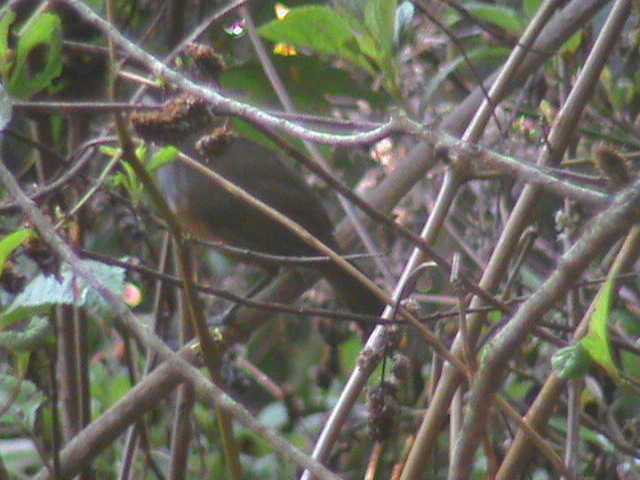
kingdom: Animalia
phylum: Chordata
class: Aves
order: Passeriformes
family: Leiothrichidae
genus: Trochalopteron
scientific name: Trochalopteron fairbanki
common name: Kerala laughingthrush
